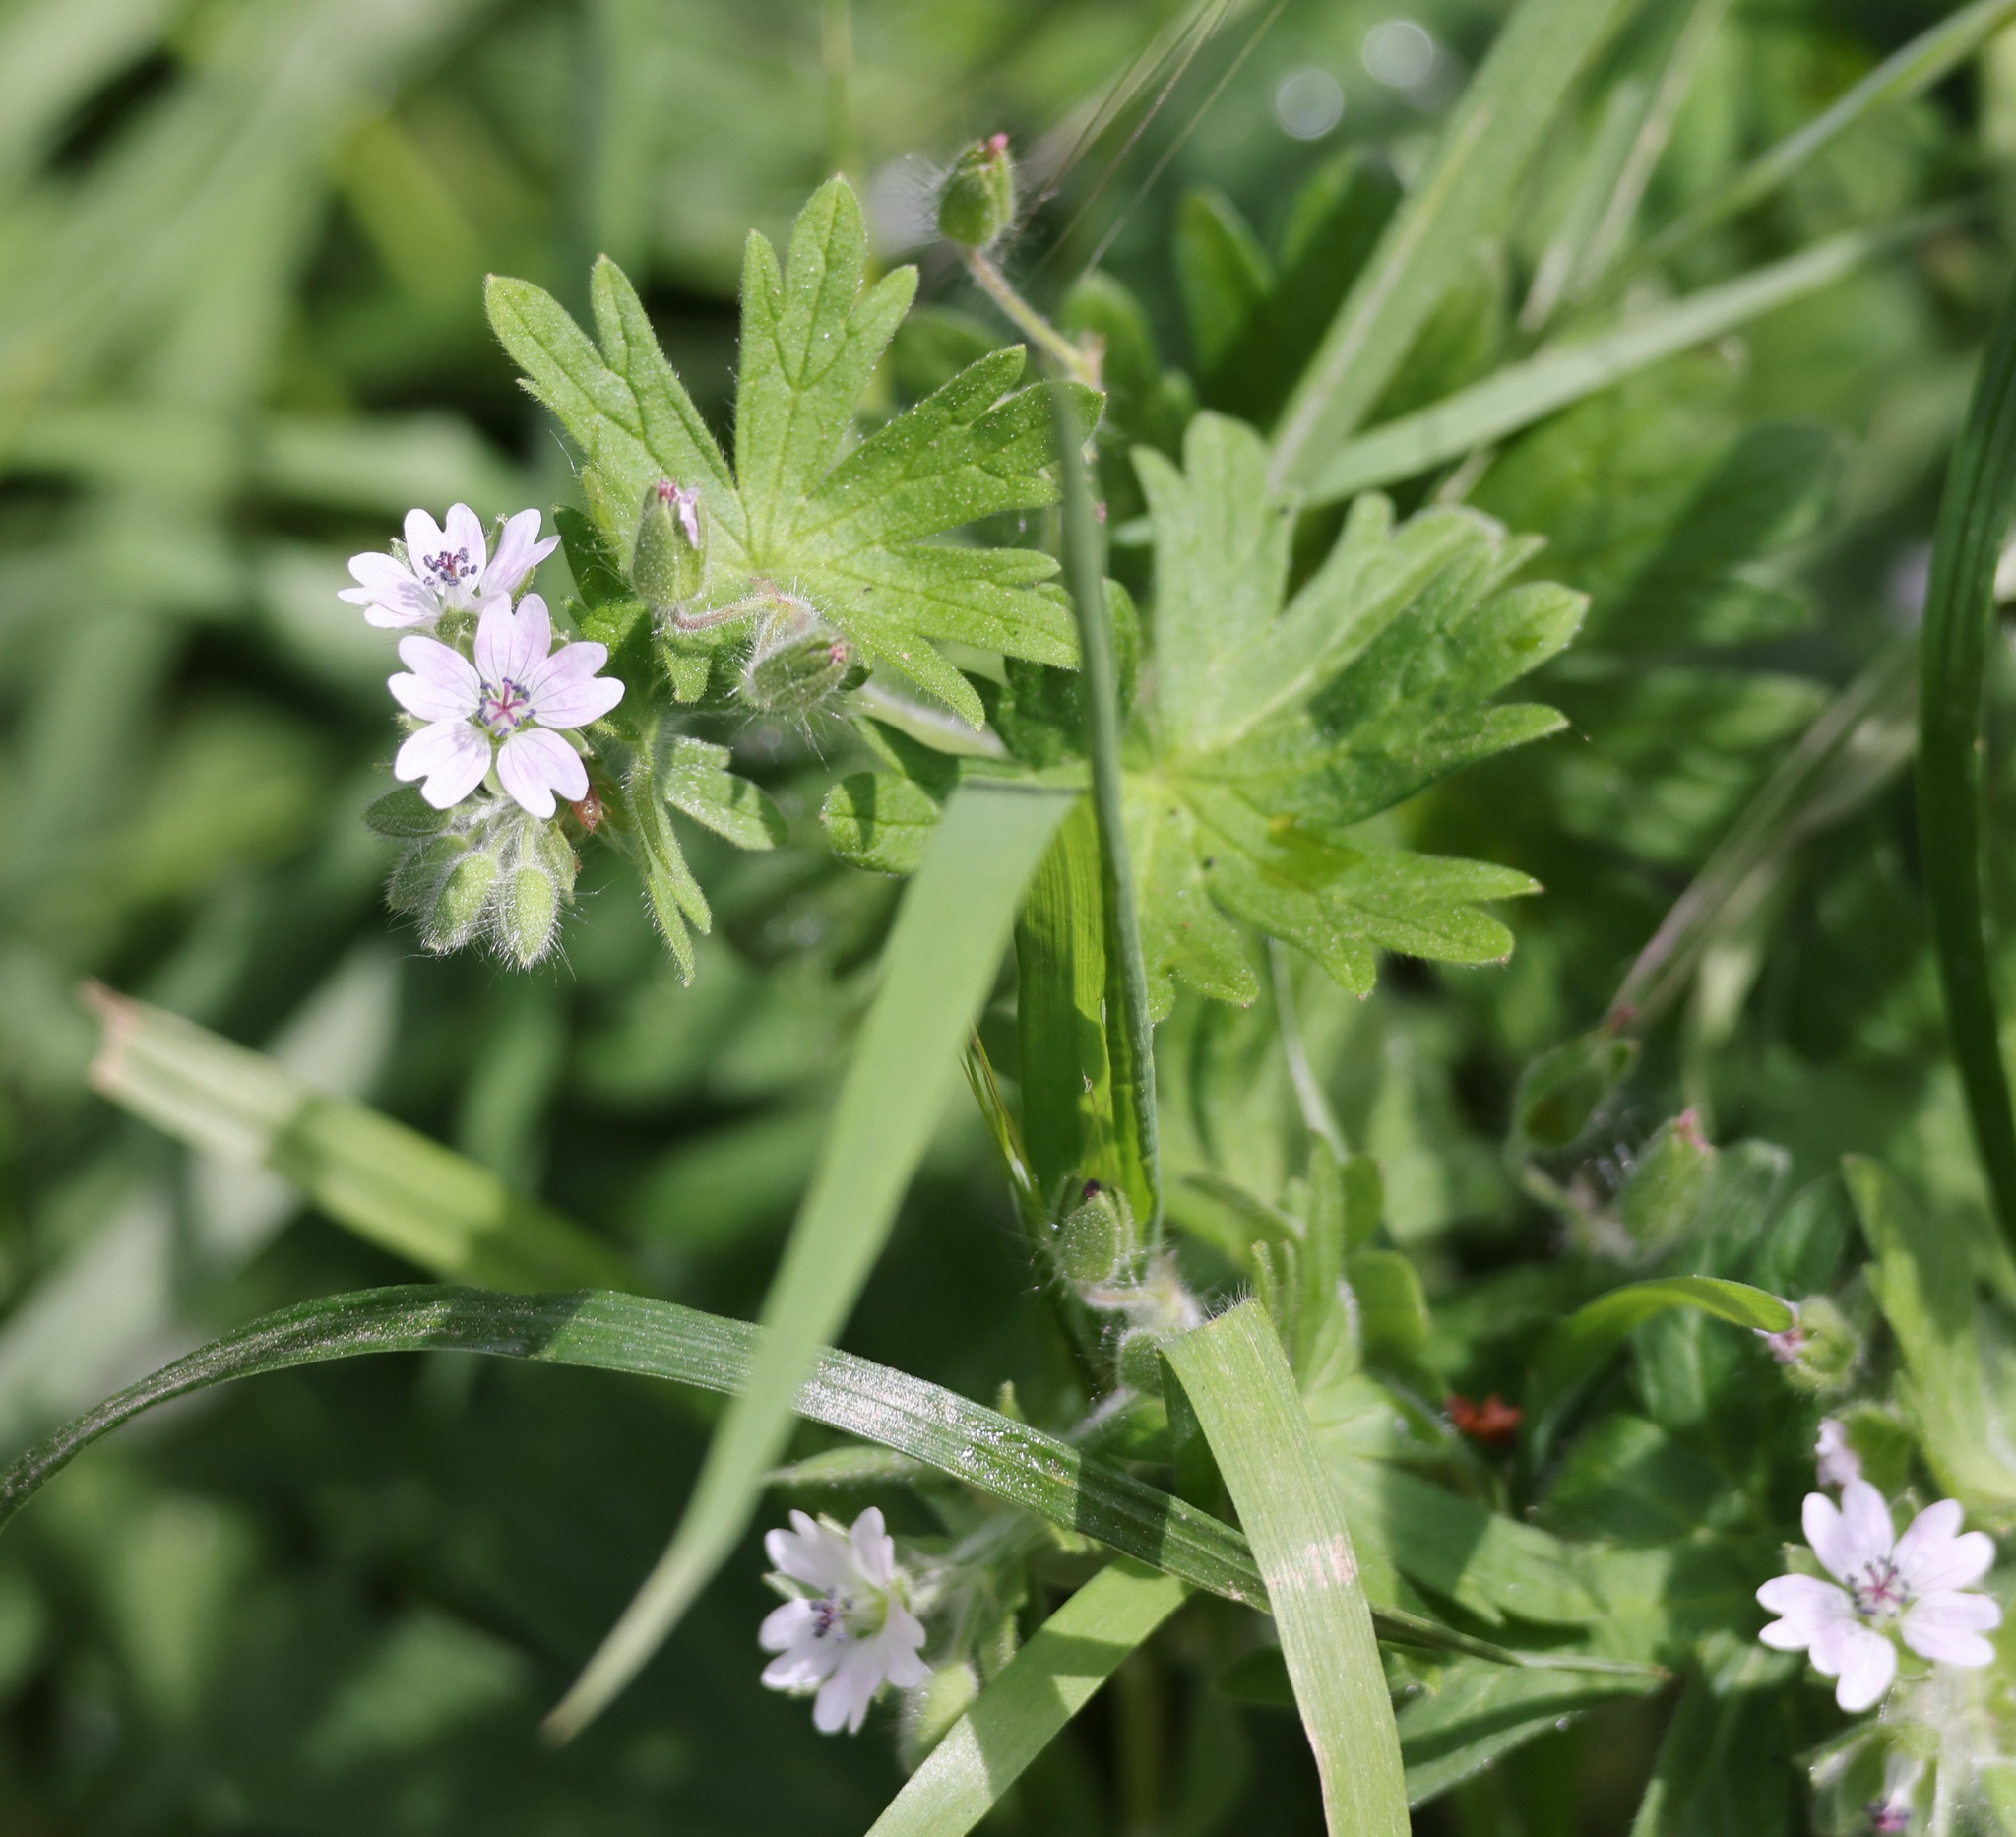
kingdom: Plantae
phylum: Tracheophyta
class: Magnoliopsida
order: Geraniales
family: Geraniaceae
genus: Geranium
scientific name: Geranium molle
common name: Dove's-foot crane's-bill
